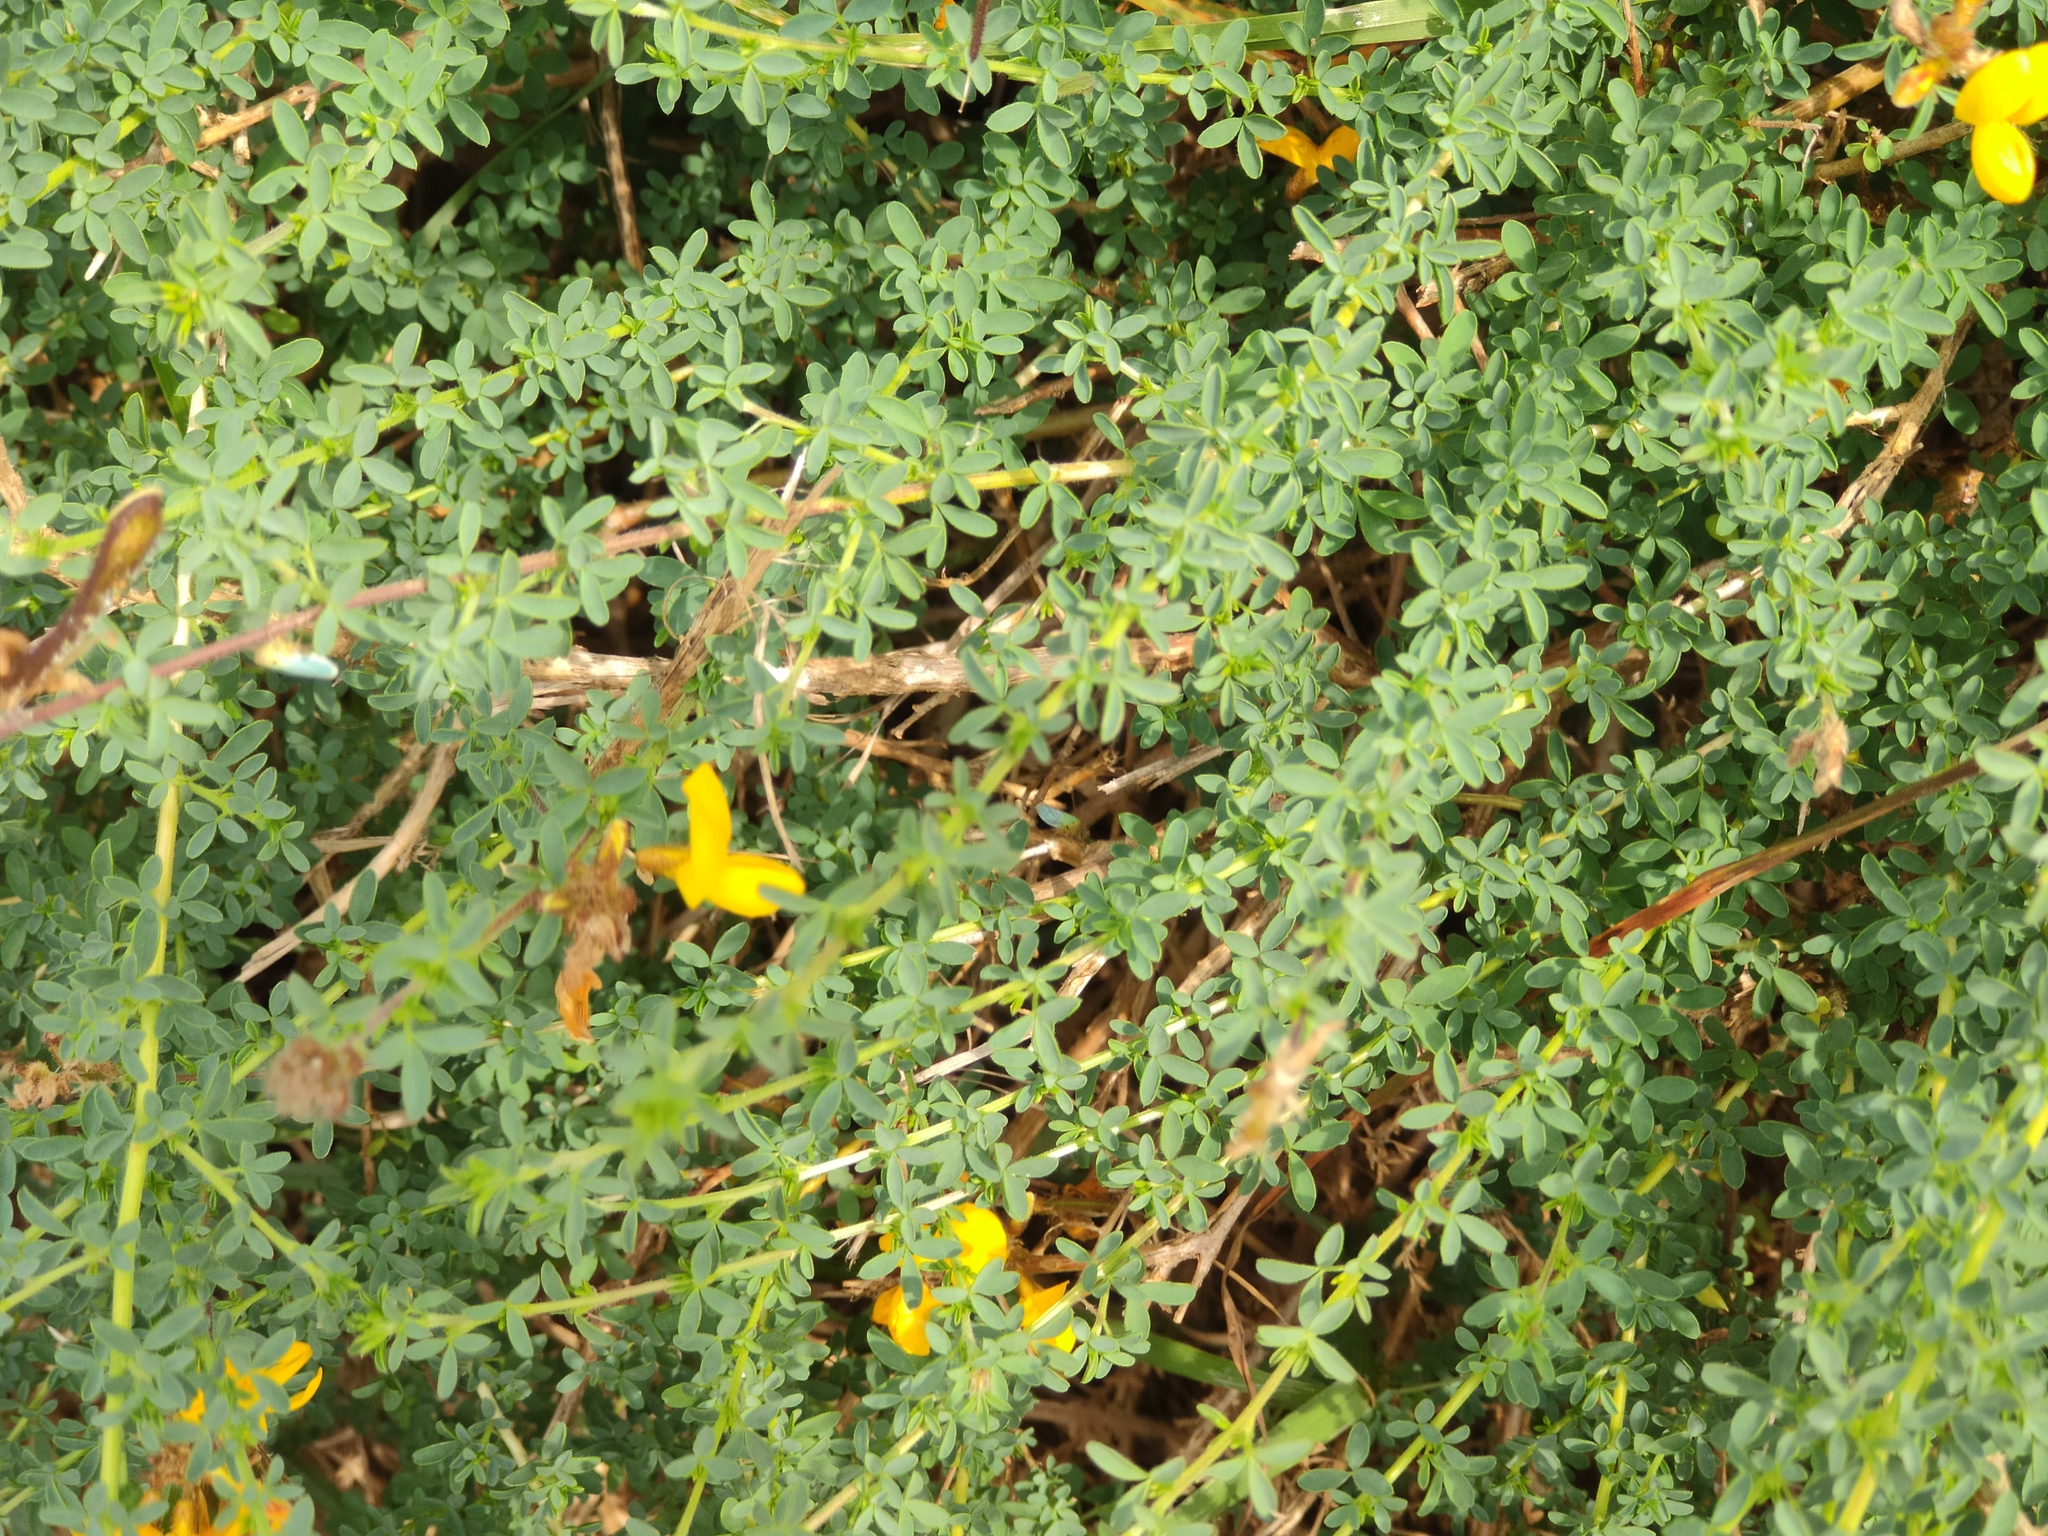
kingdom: Plantae
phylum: Tracheophyta
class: Magnoliopsida
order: Fabales
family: Fabaceae
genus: Adenocarpus
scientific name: Adenocarpus complicatus
